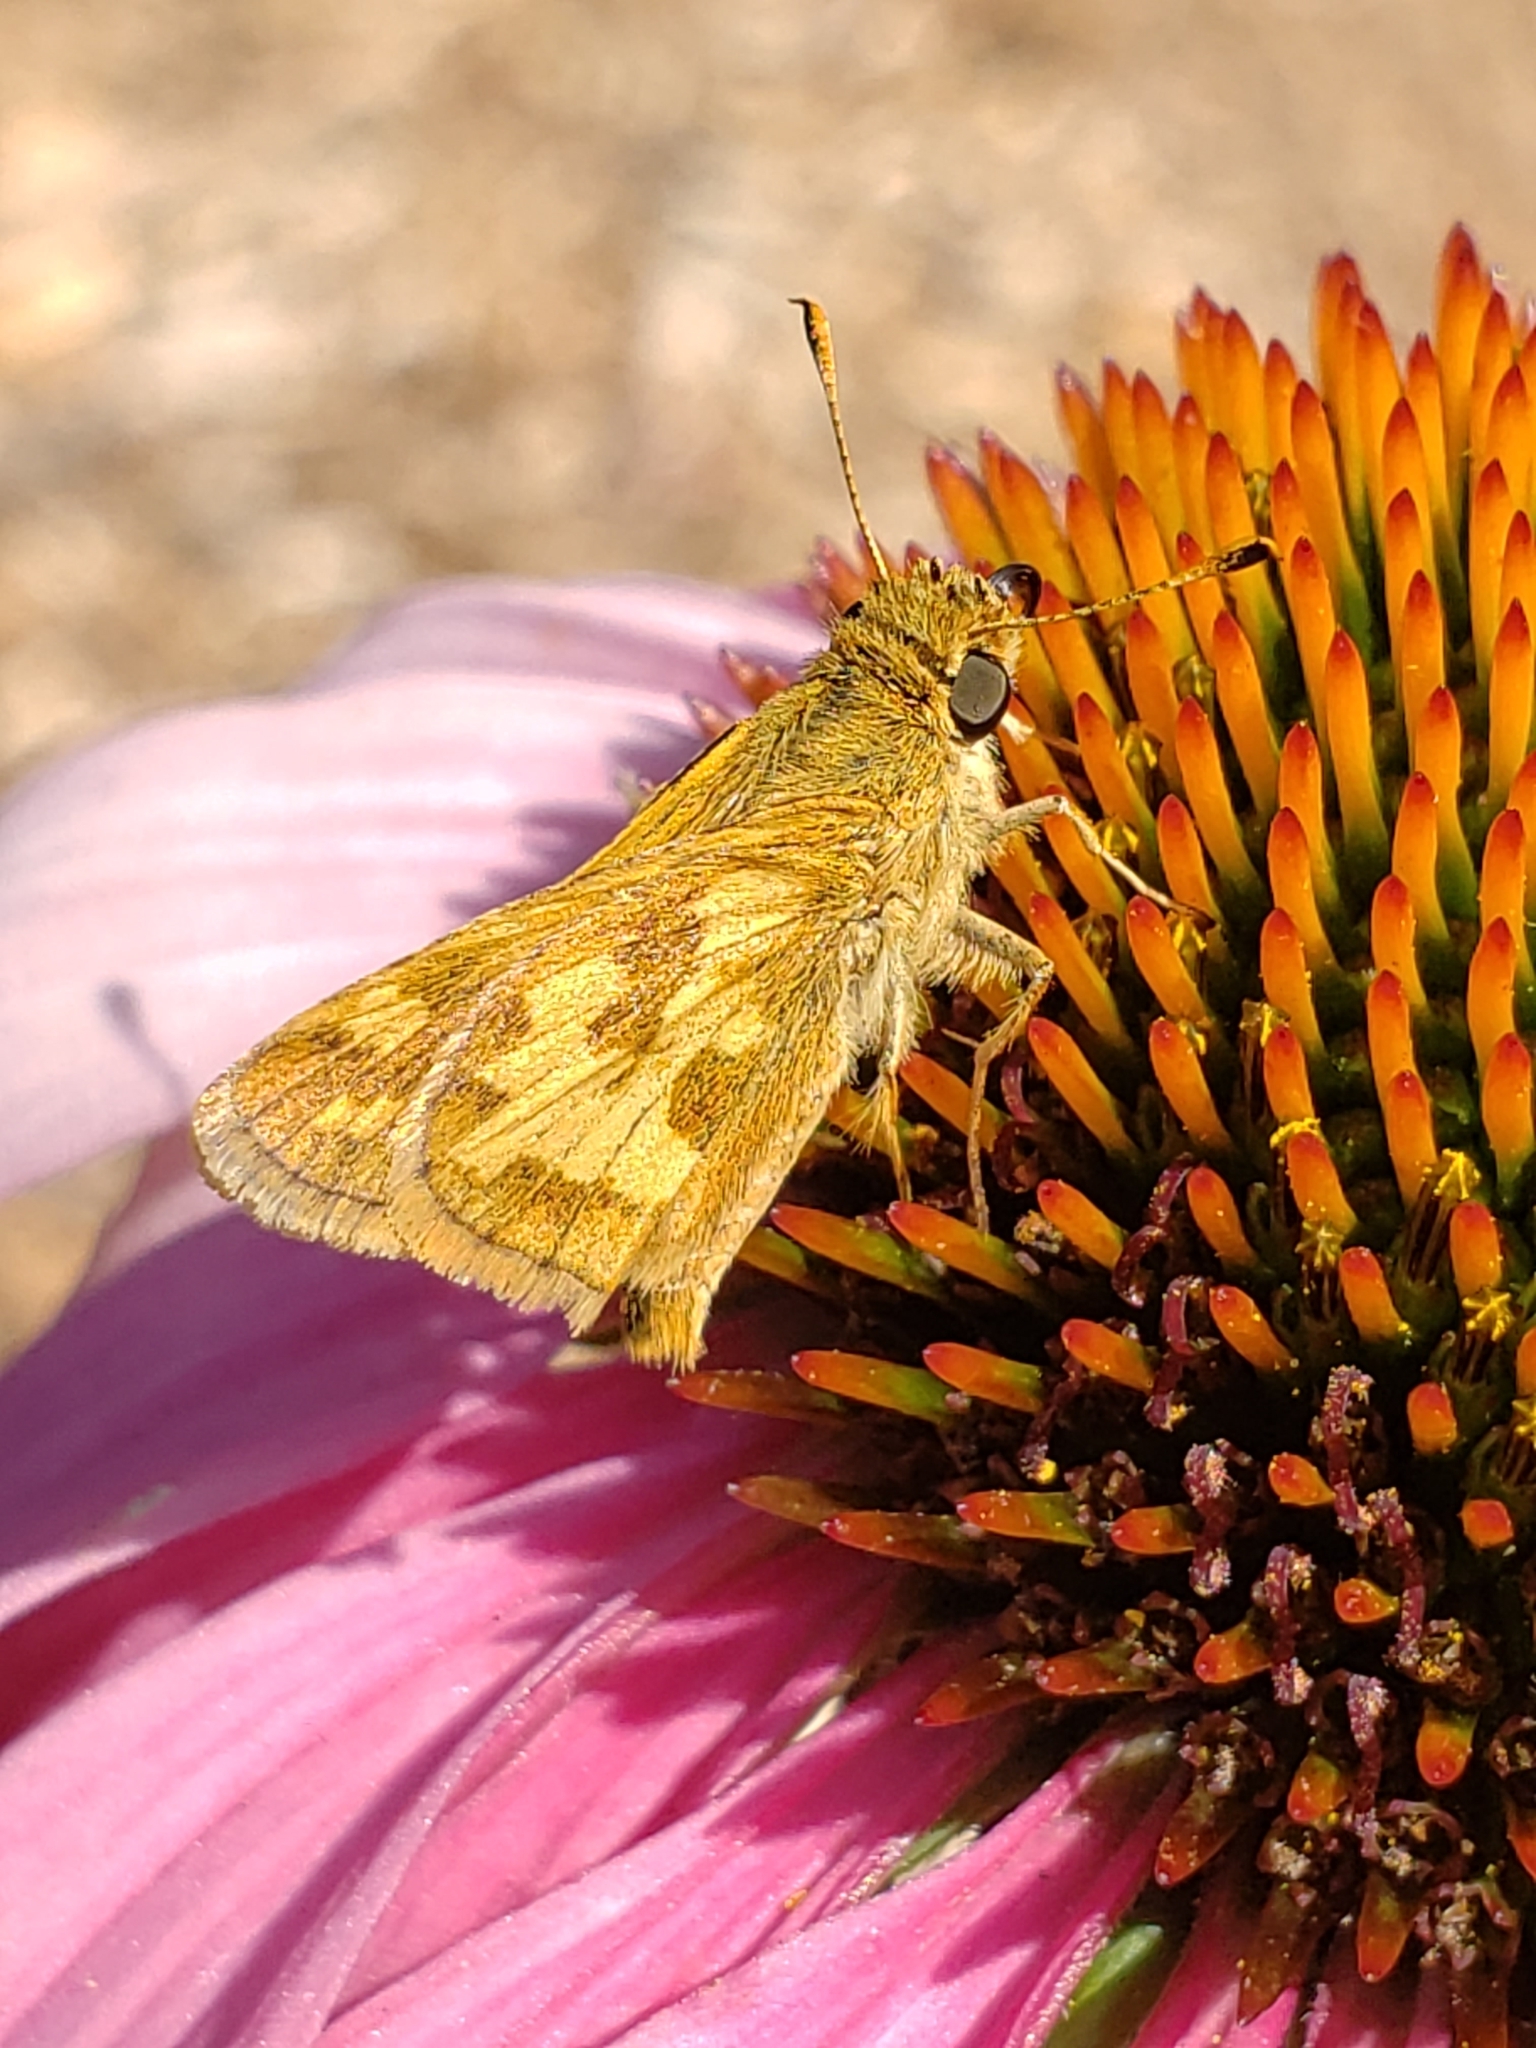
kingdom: Animalia
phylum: Arthropoda
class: Insecta
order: Lepidoptera
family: Hesperiidae
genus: Polites
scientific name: Polites coras
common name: Peck's skipper
